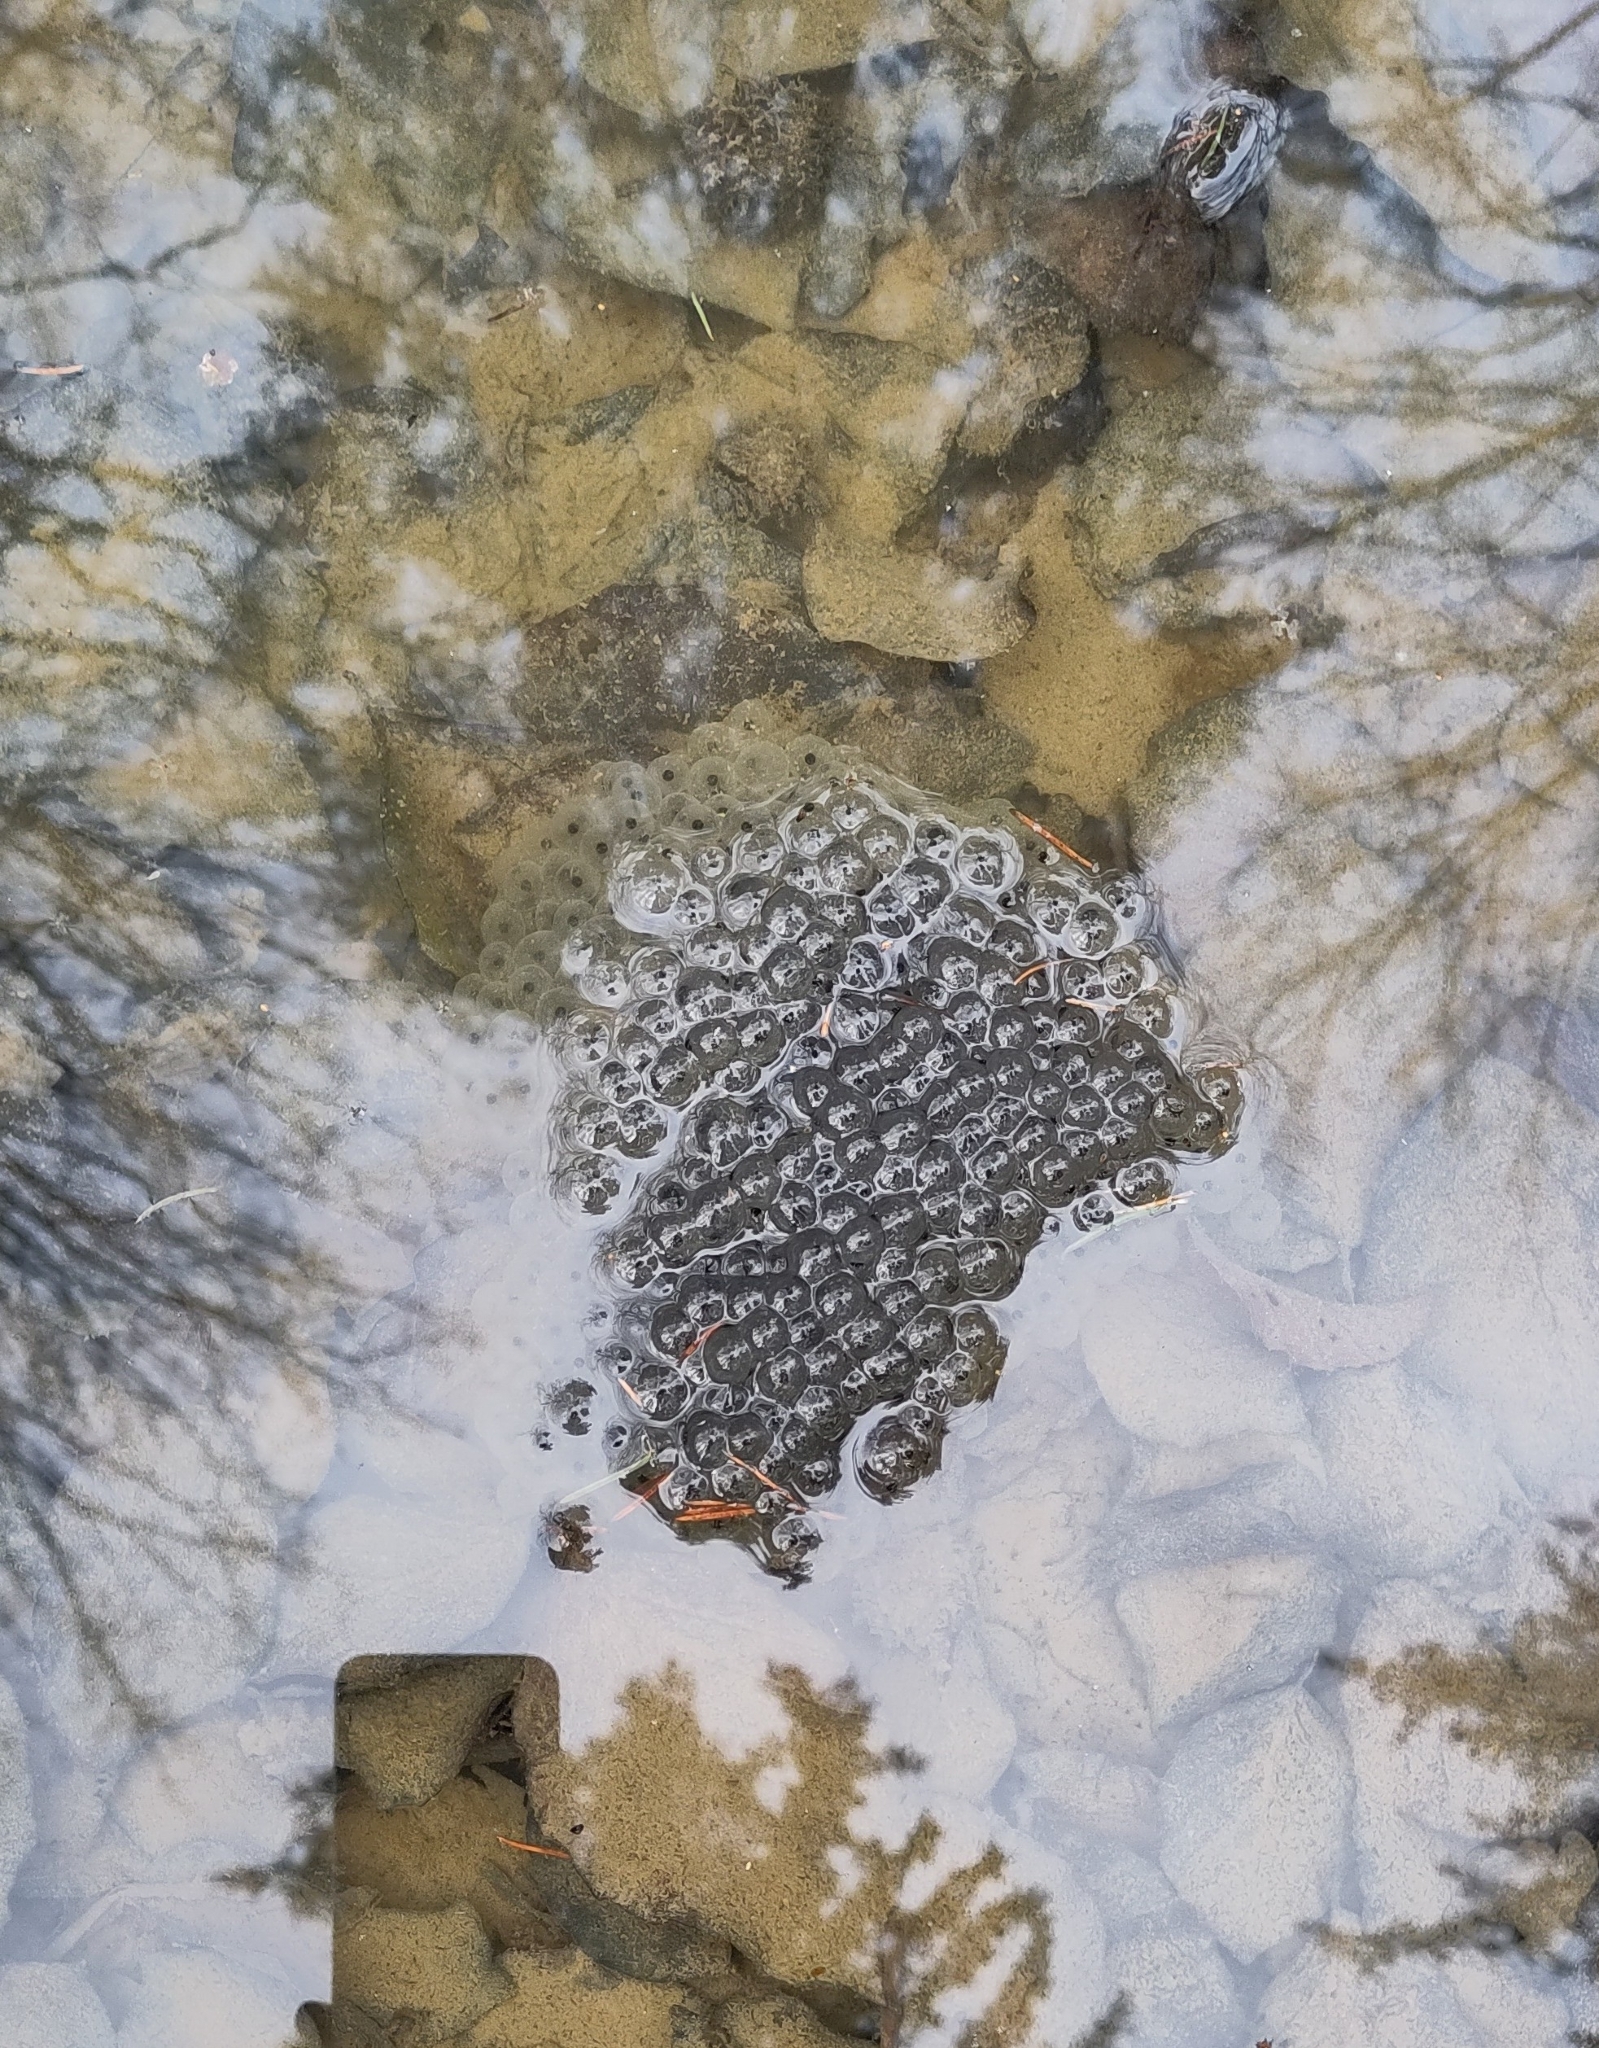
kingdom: Animalia
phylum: Chordata
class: Amphibia
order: Anura
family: Ranidae
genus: Rana
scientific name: Rana temporaria
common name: Common frog
